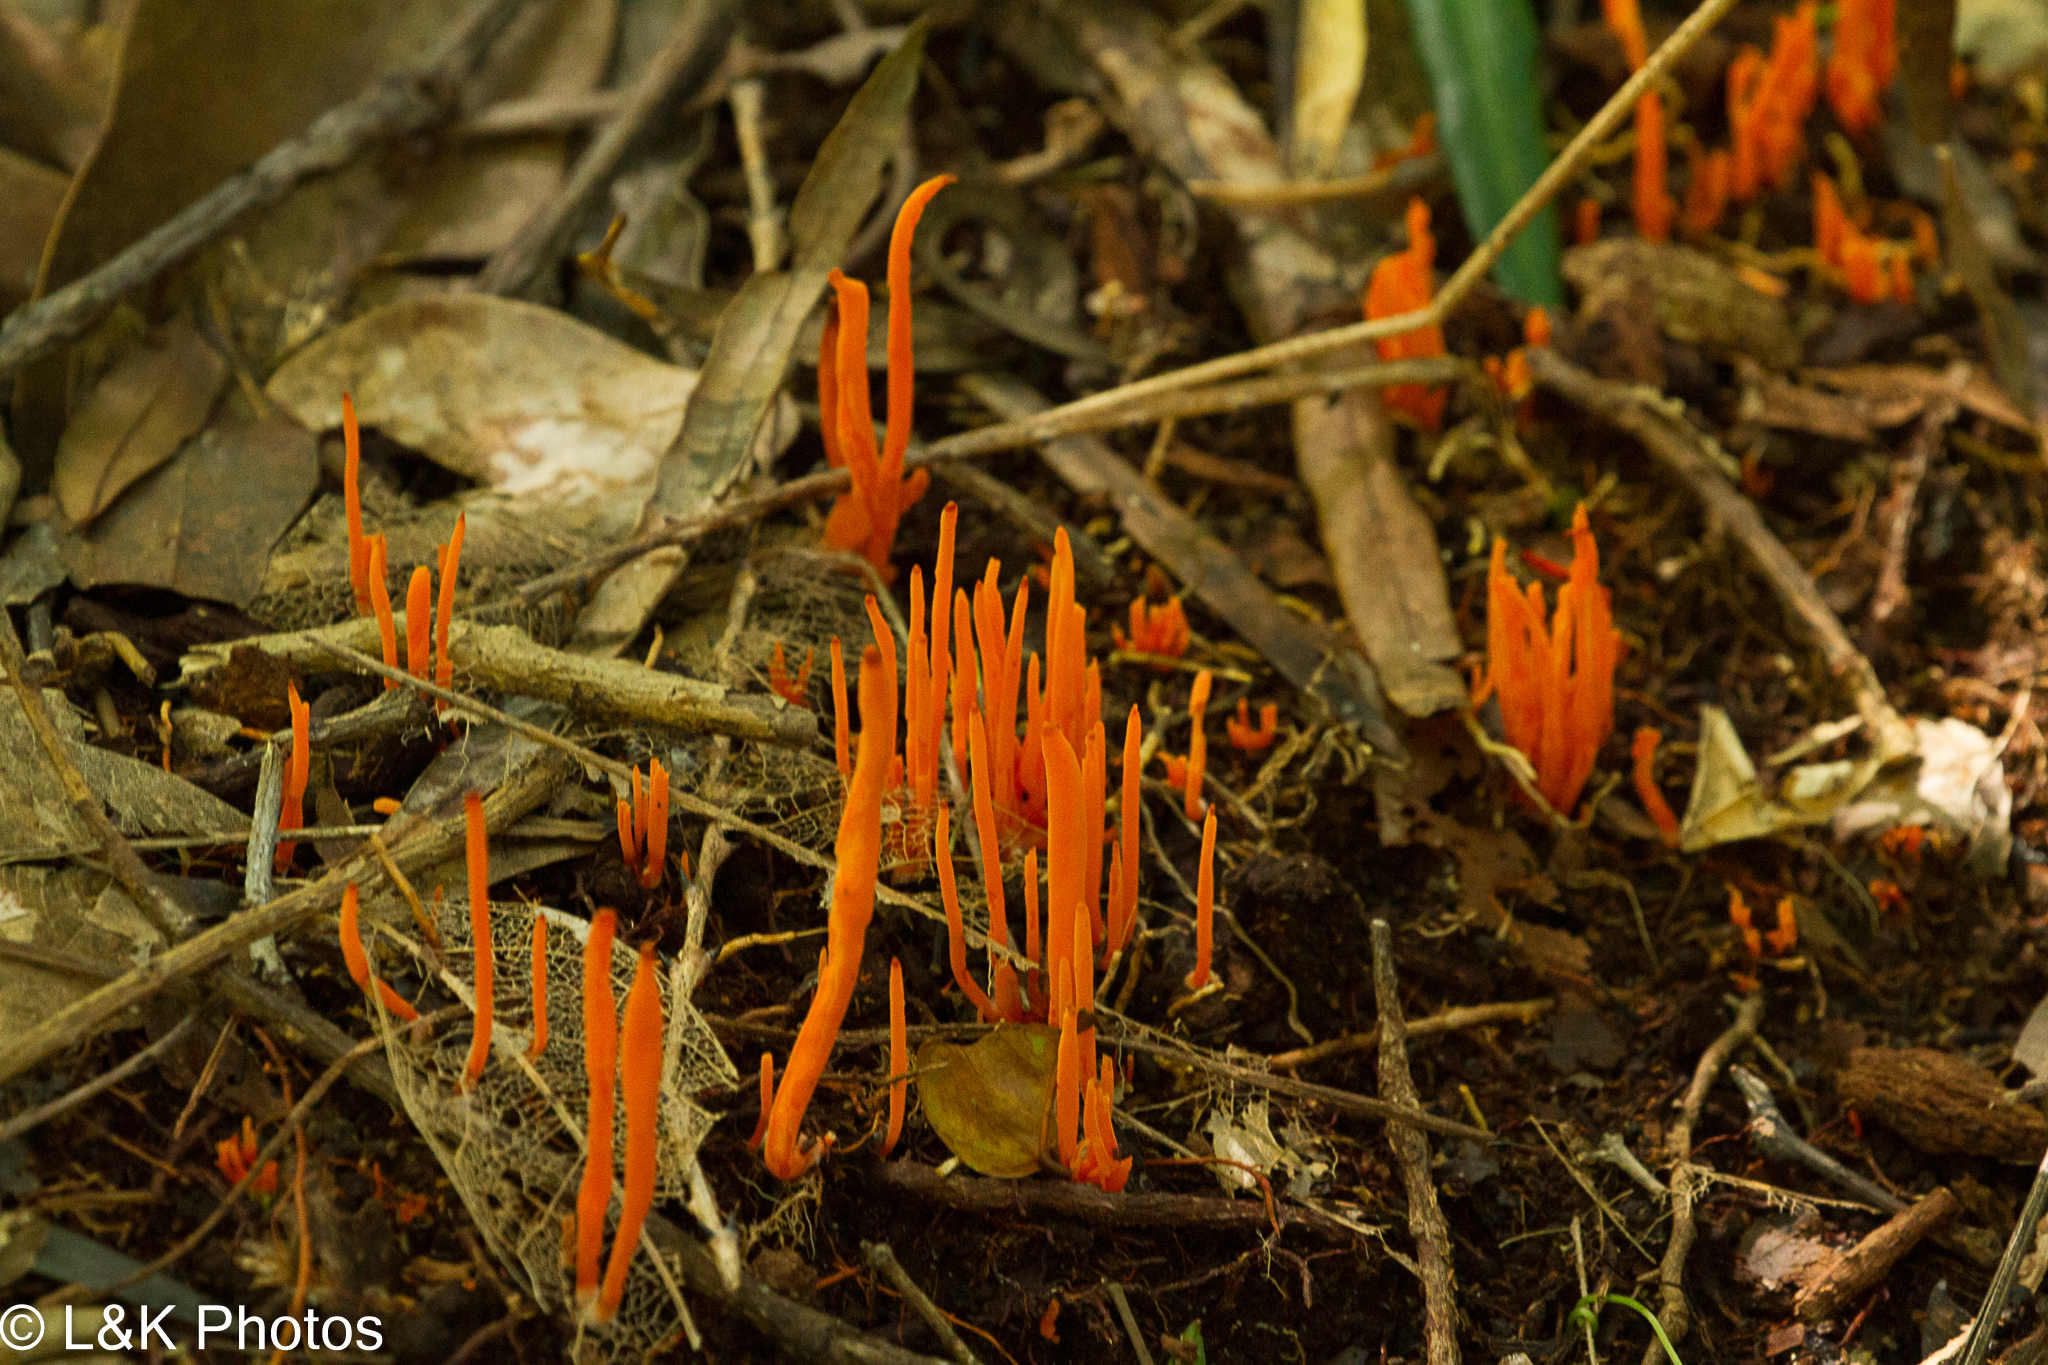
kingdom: Fungi
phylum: Basidiomycota
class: Agaricomycetes
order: Agaricales
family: Clavariaceae
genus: Clavulinopsis
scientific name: Clavulinopsis sulcata
